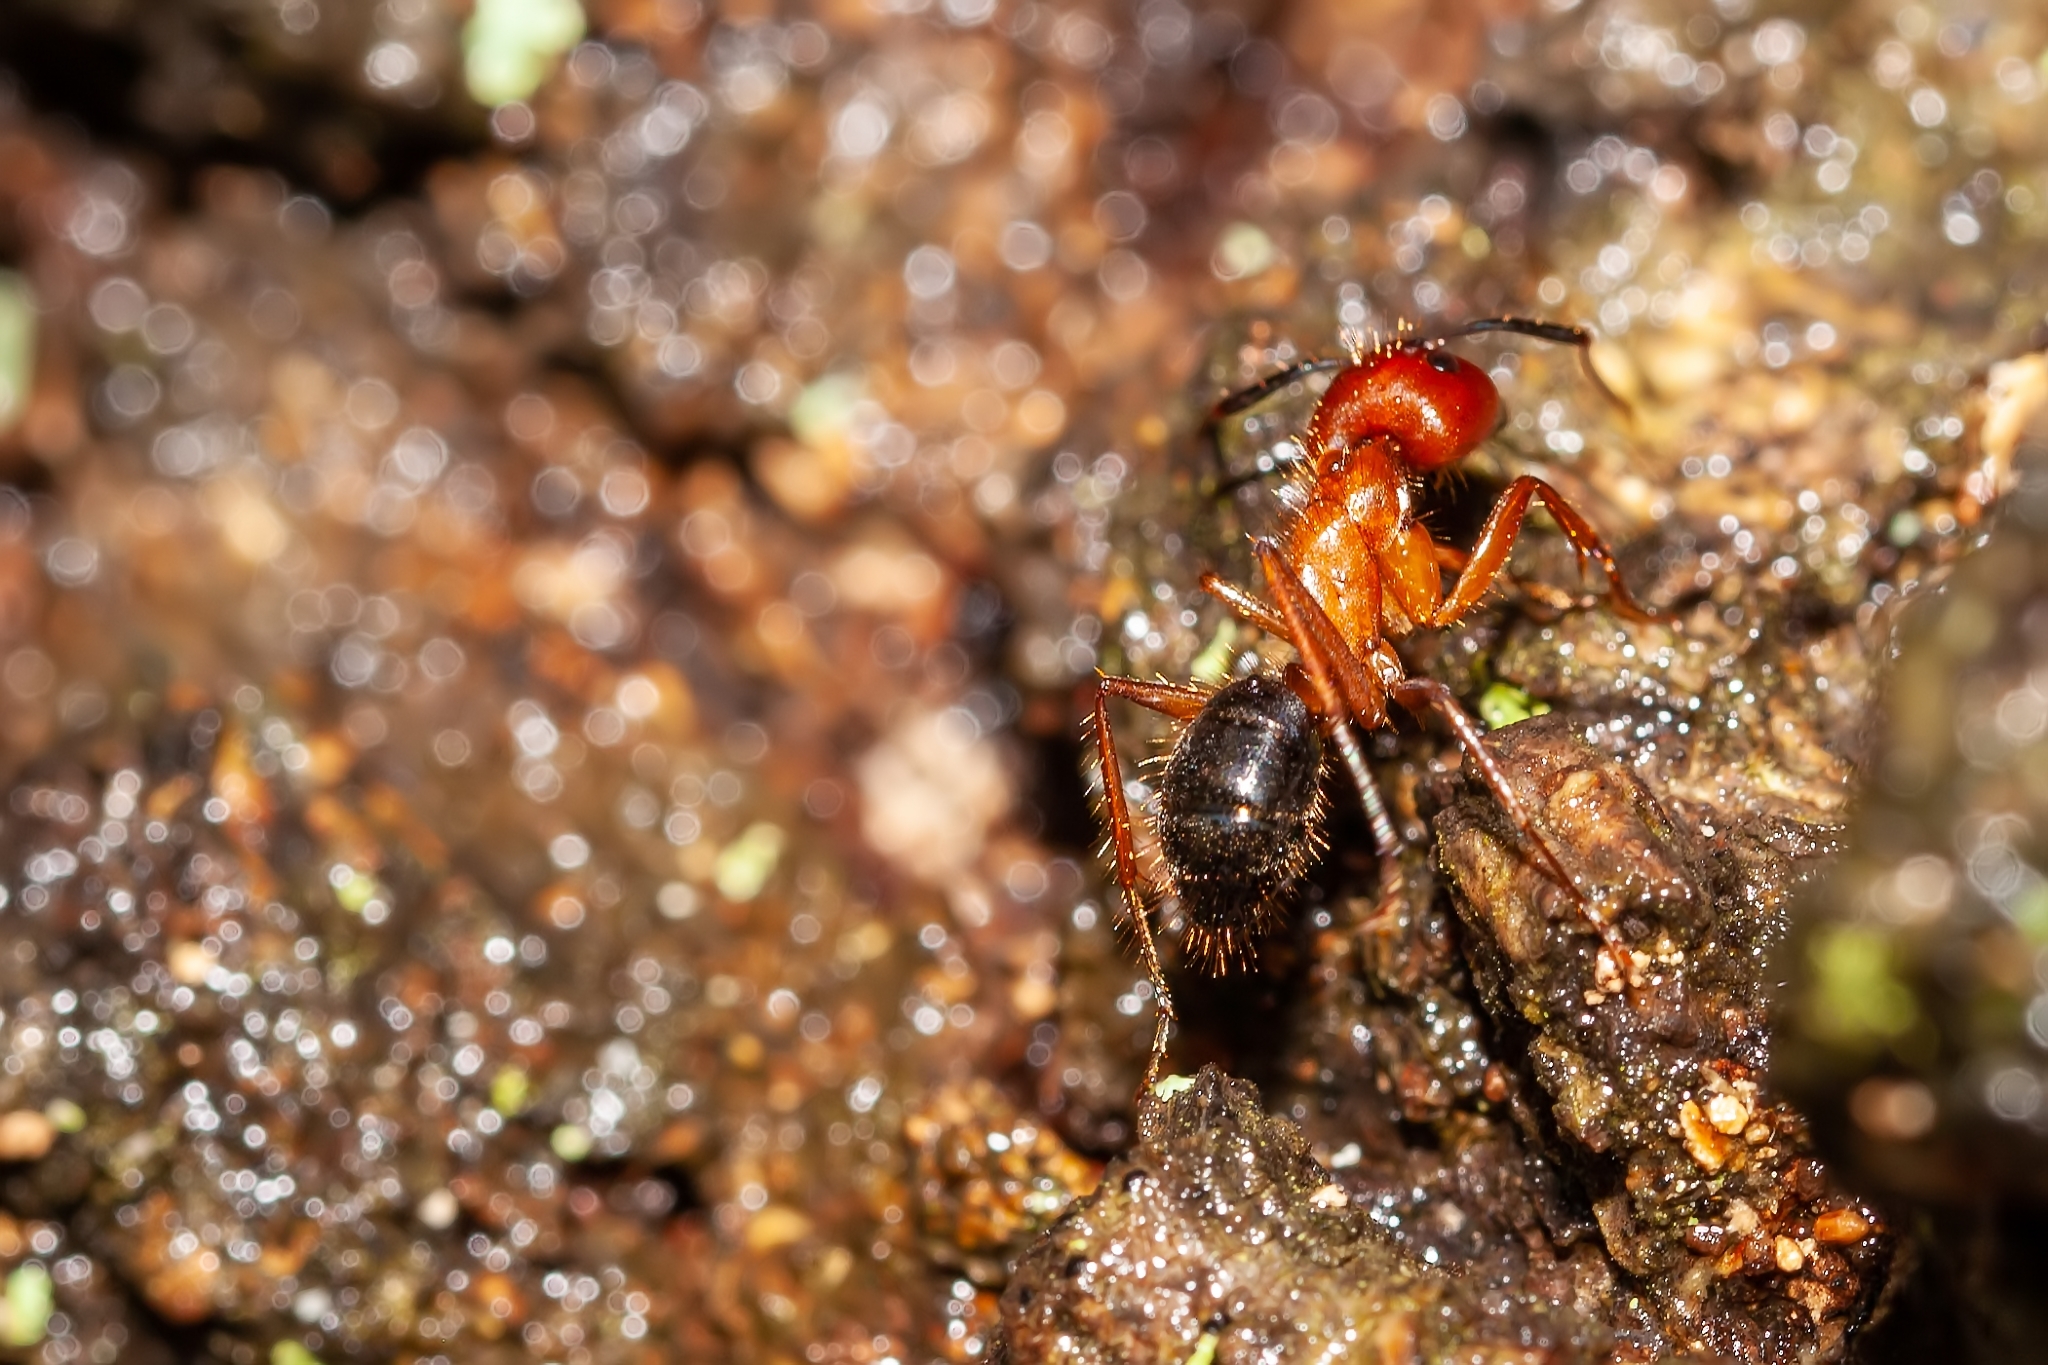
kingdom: Animalia
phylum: Arthropoda
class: Insecta
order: Hymenoptera
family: Formicidae
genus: Camponotus
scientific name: Camponotus floridanus
